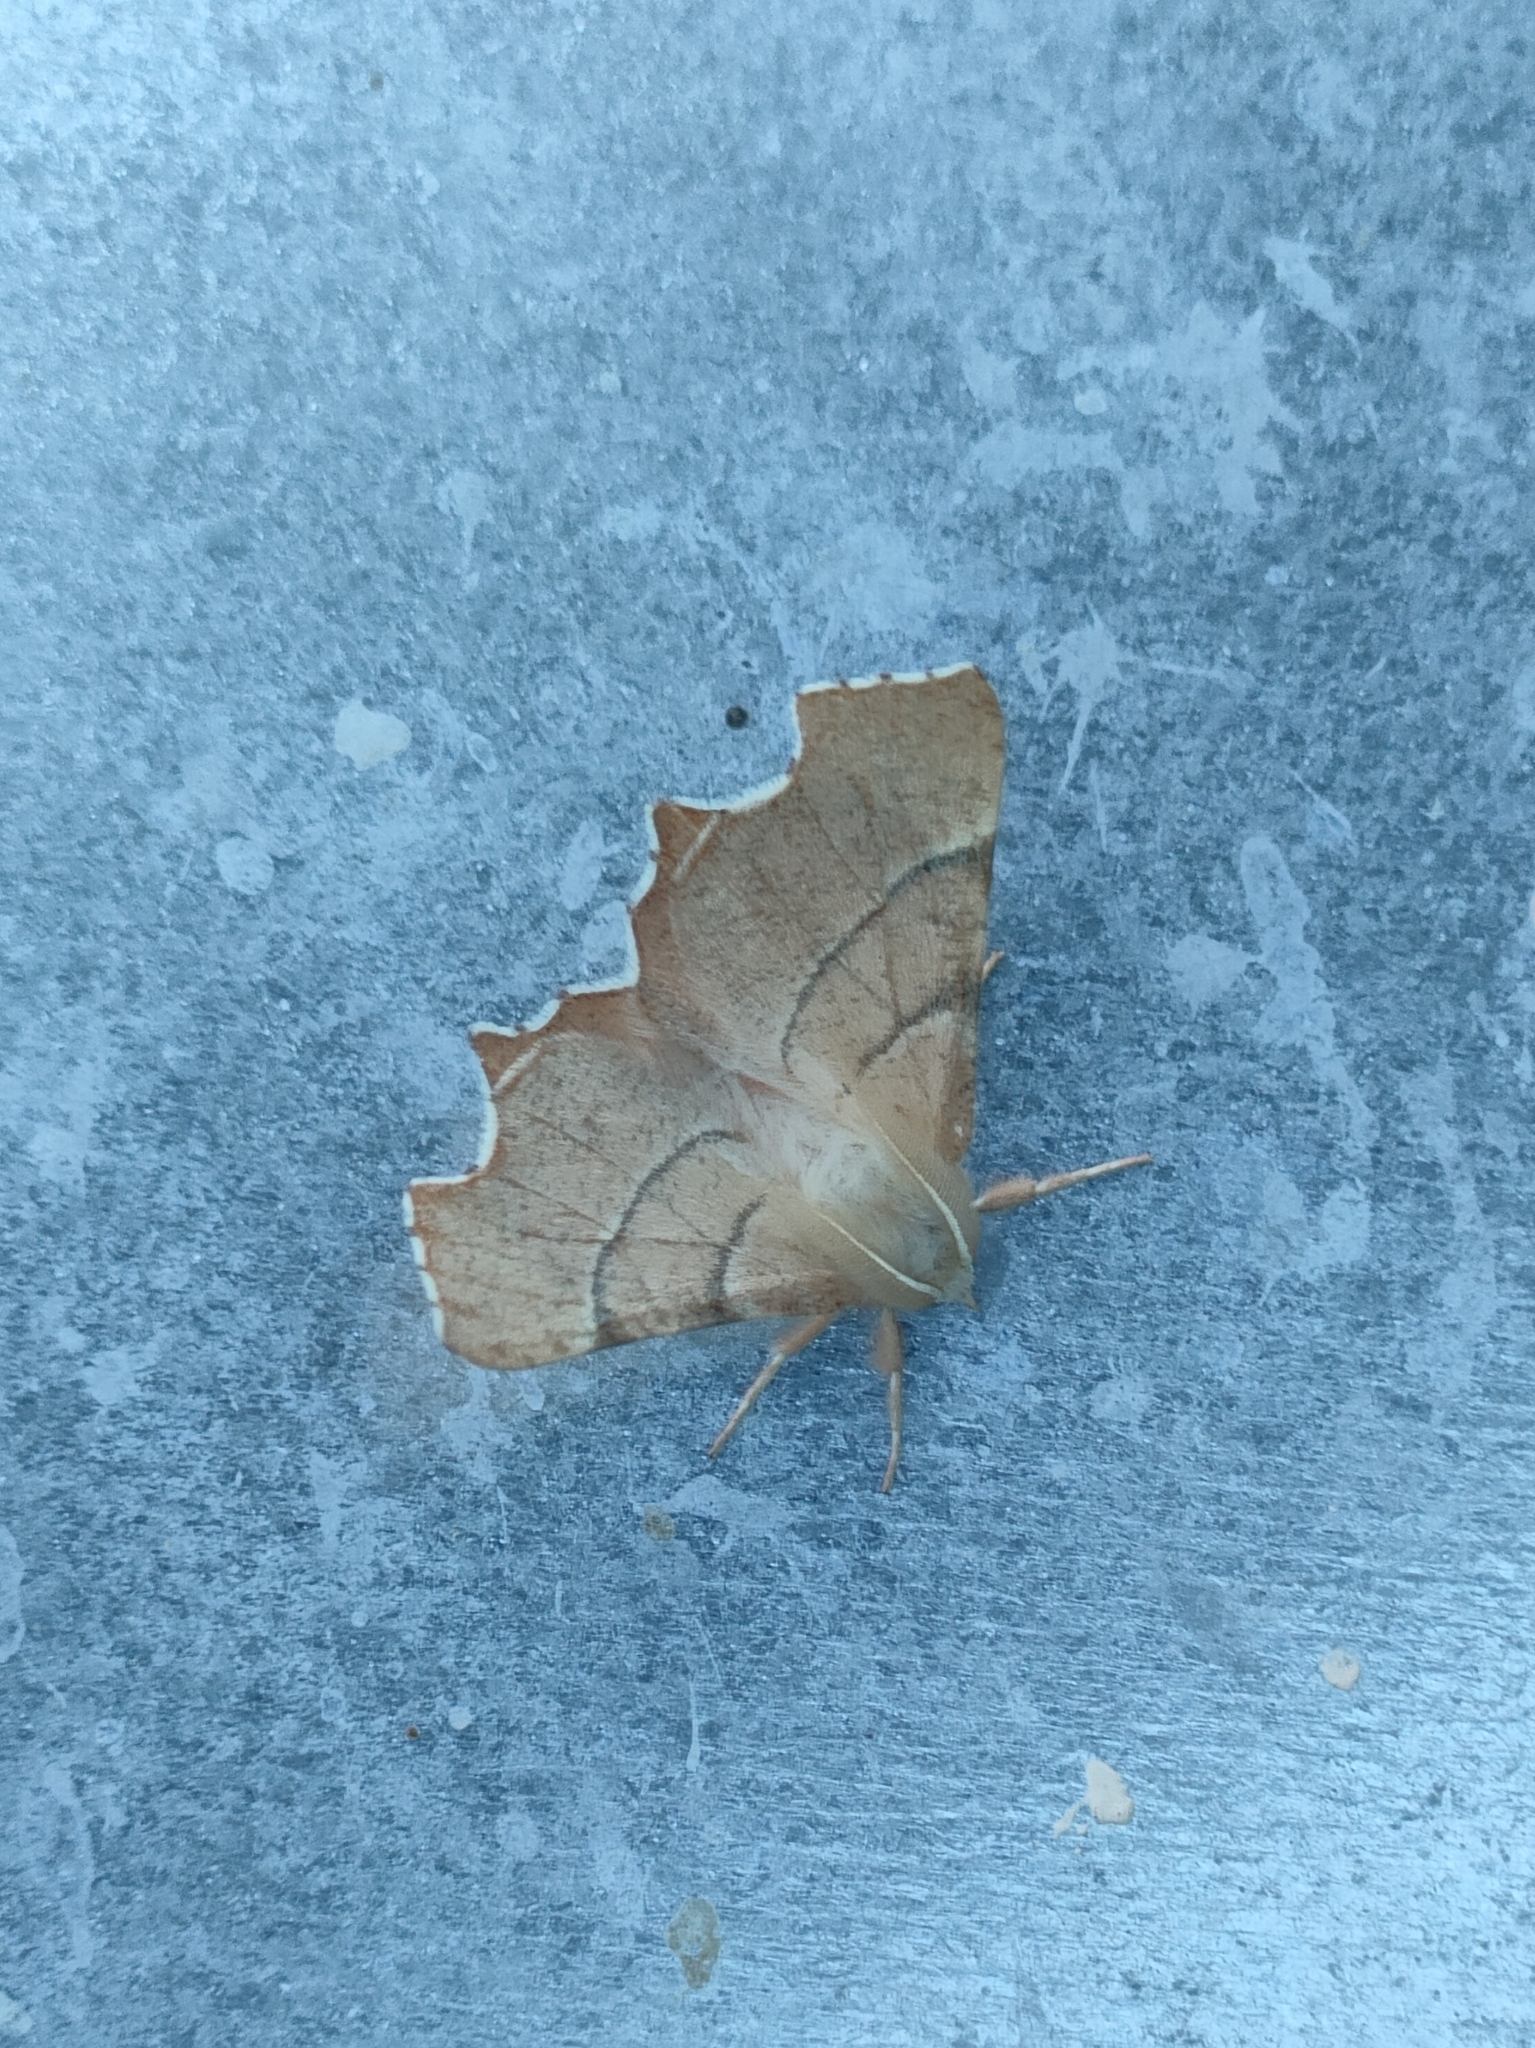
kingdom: Animalia
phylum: Arthropoda
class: Insecta
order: Lepidoptera
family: Geometridae
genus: Ennomos
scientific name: Ennomos quercaria
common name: Clouded august thorn
